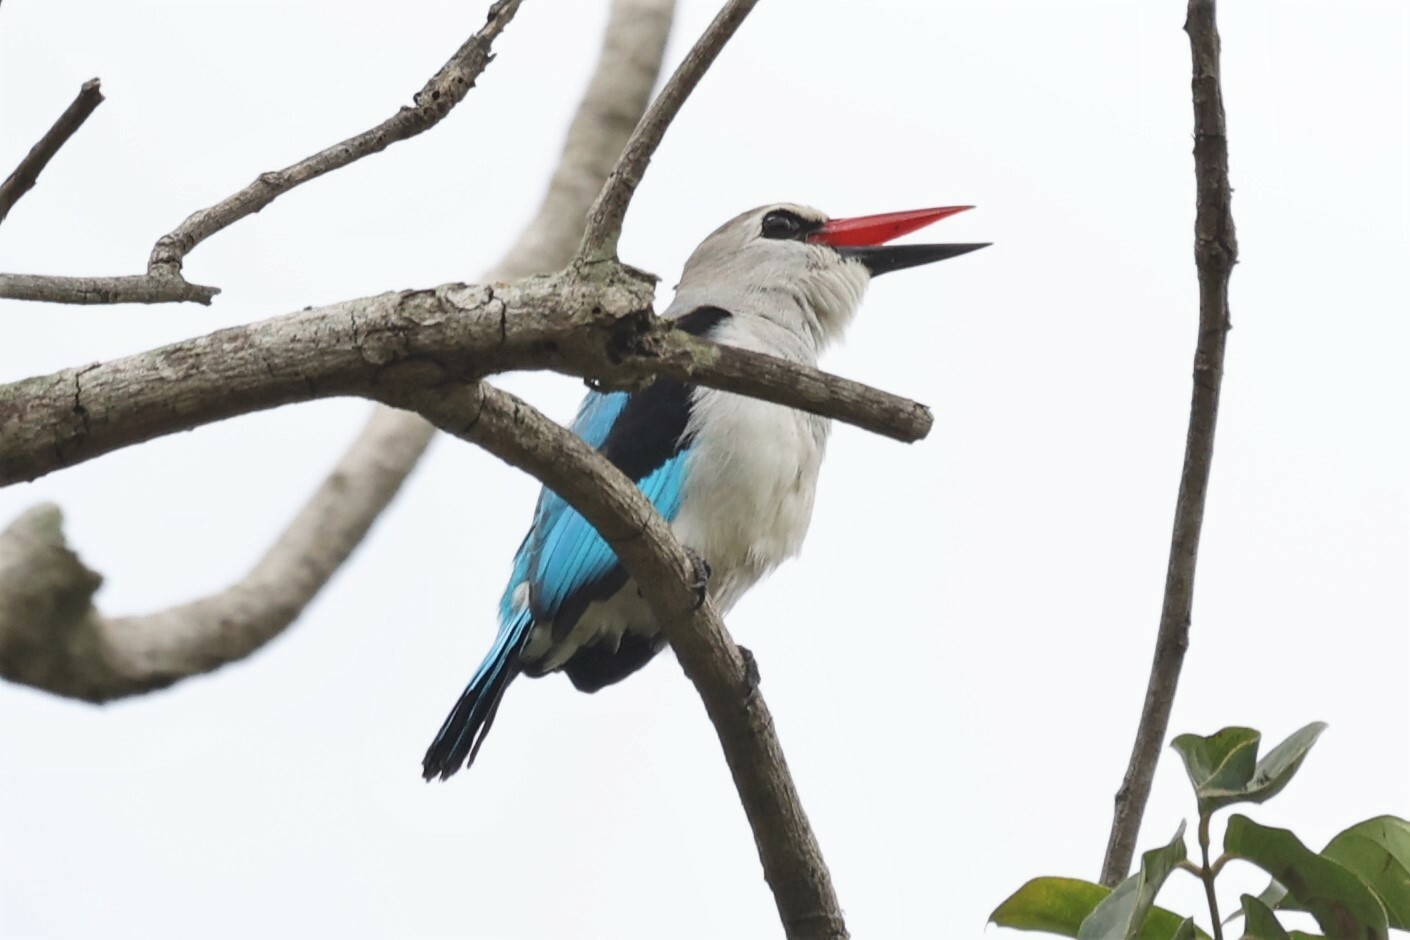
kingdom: Animalia
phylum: Chordata
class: Aves
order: Coraciiformes
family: Alcedinidae
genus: Halcyon
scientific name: Halcyon senegalensis
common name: Woodland kingfisher
